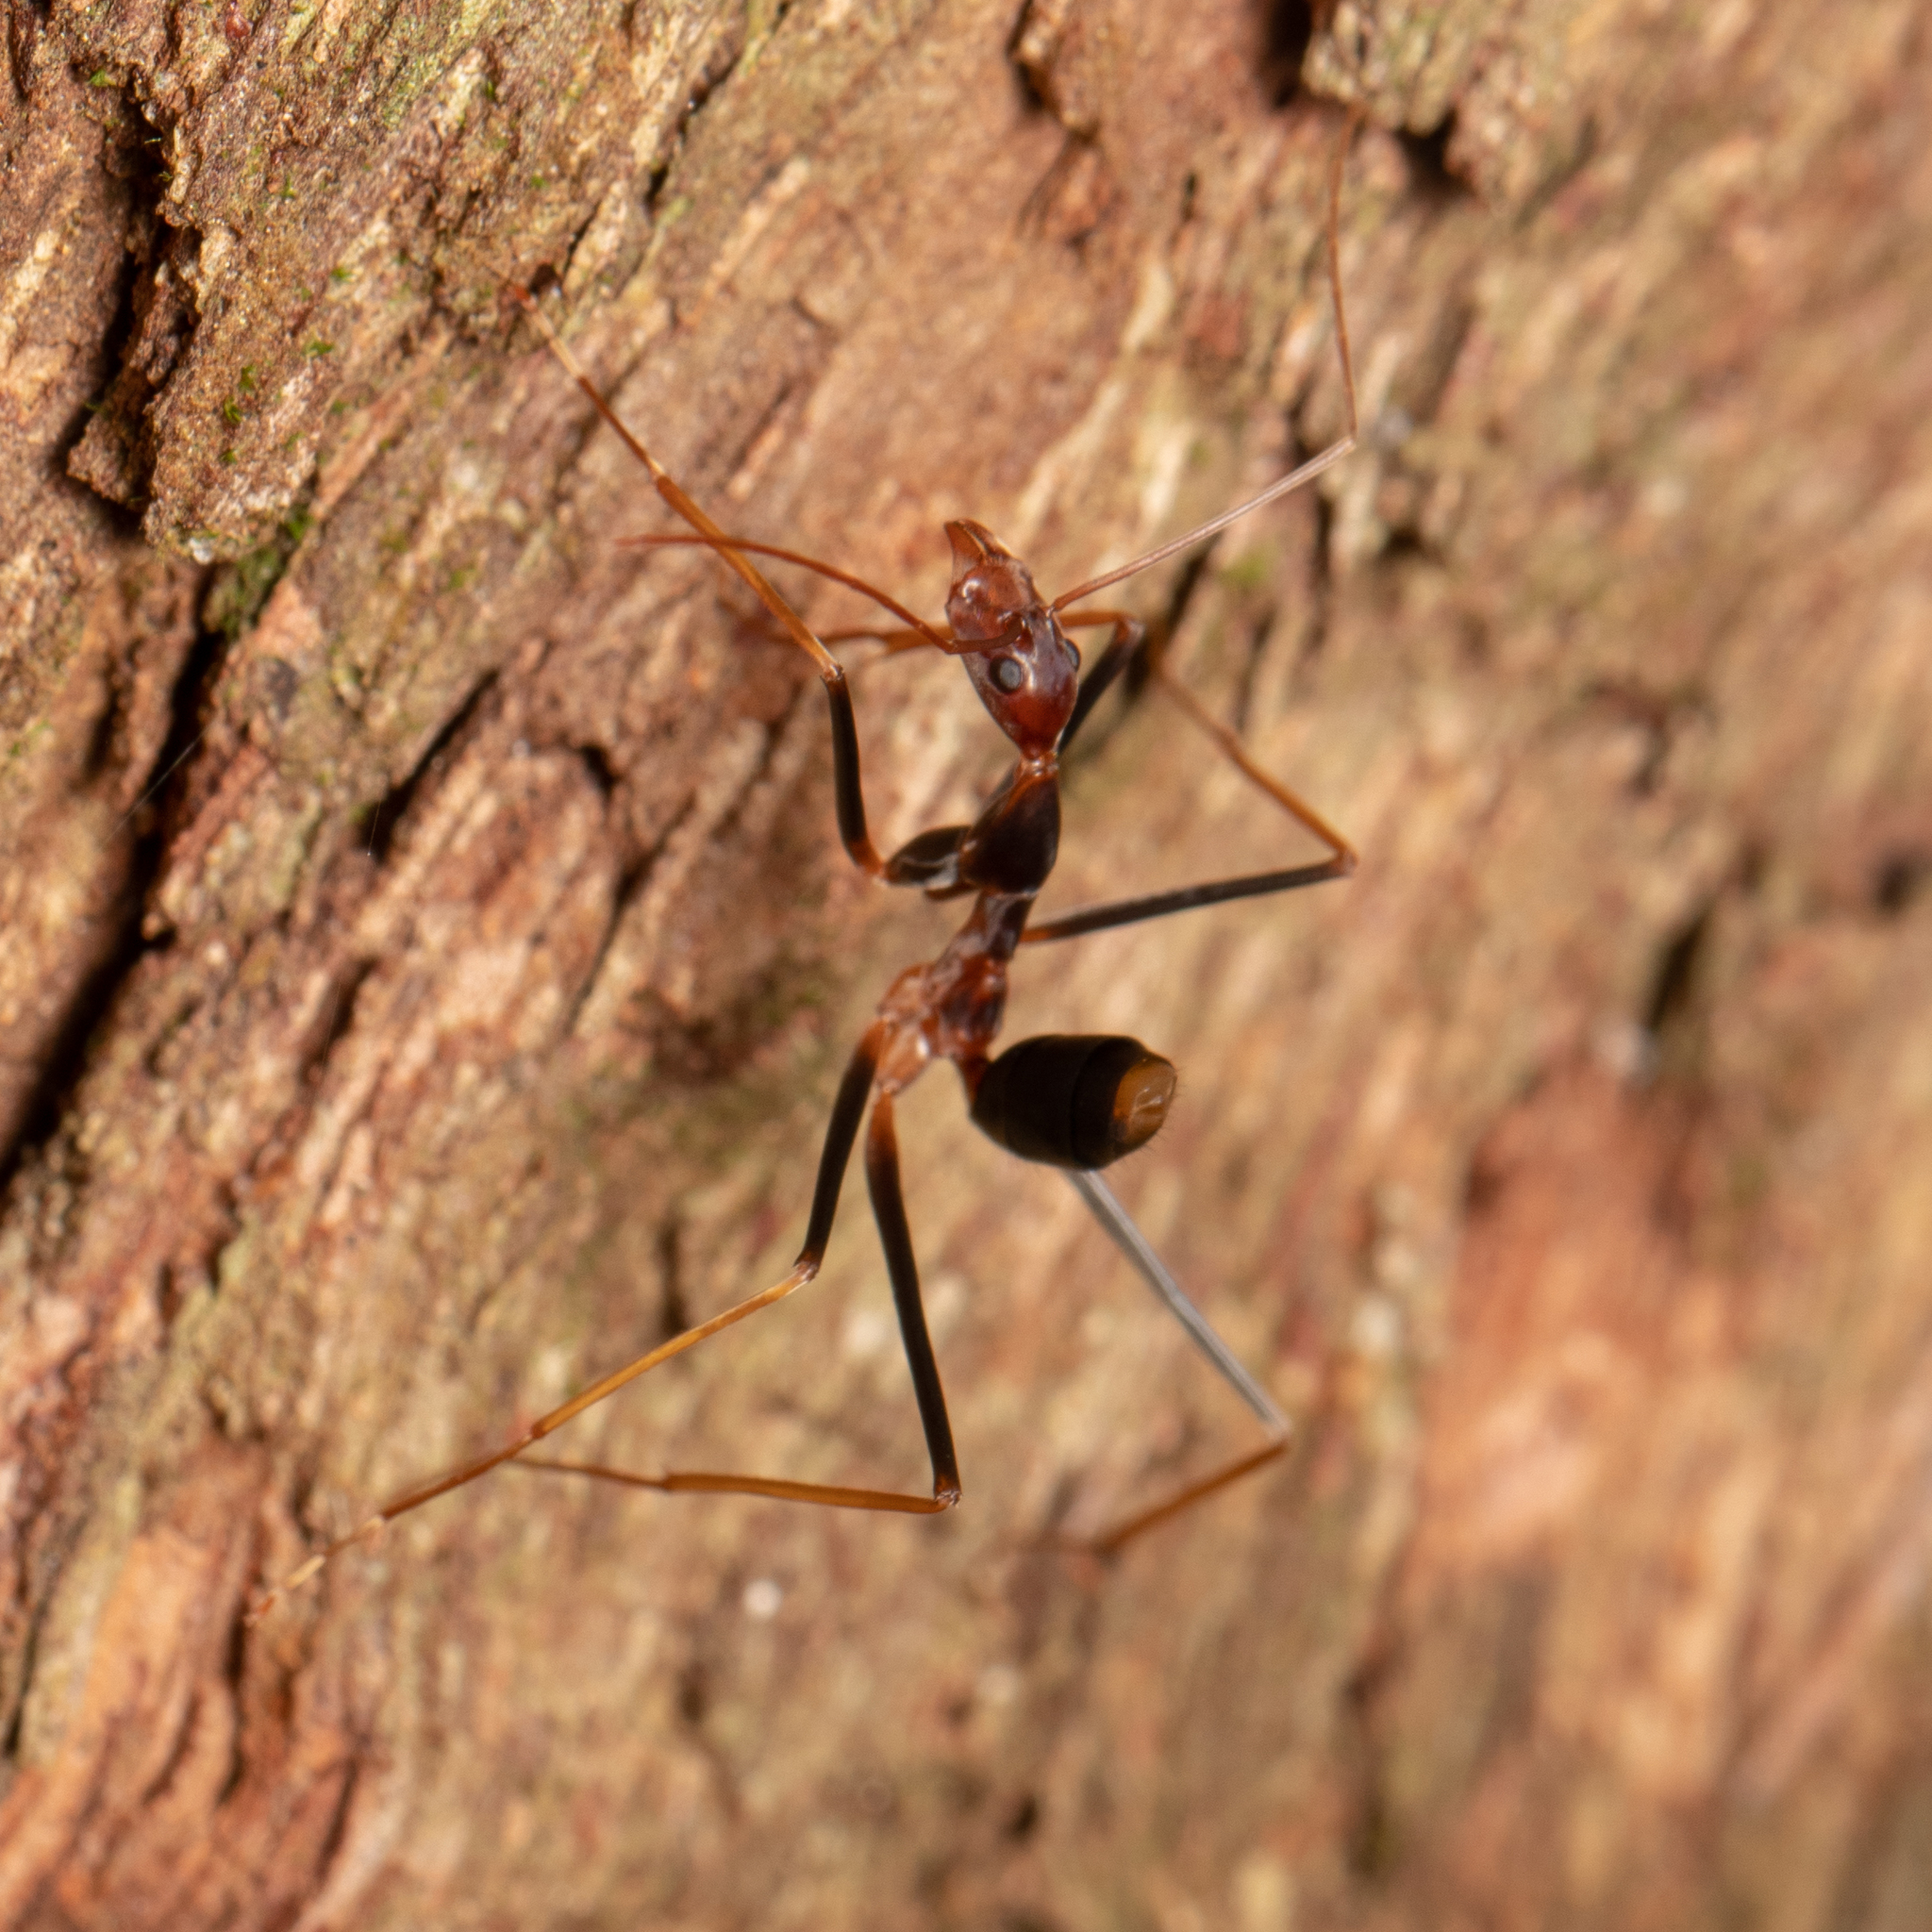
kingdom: Animalia
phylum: Arthropoda
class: Insecta
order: Hymenoptera
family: Formicidae
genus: Leptomyrmex
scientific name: Leptomyrmex rothneyi
